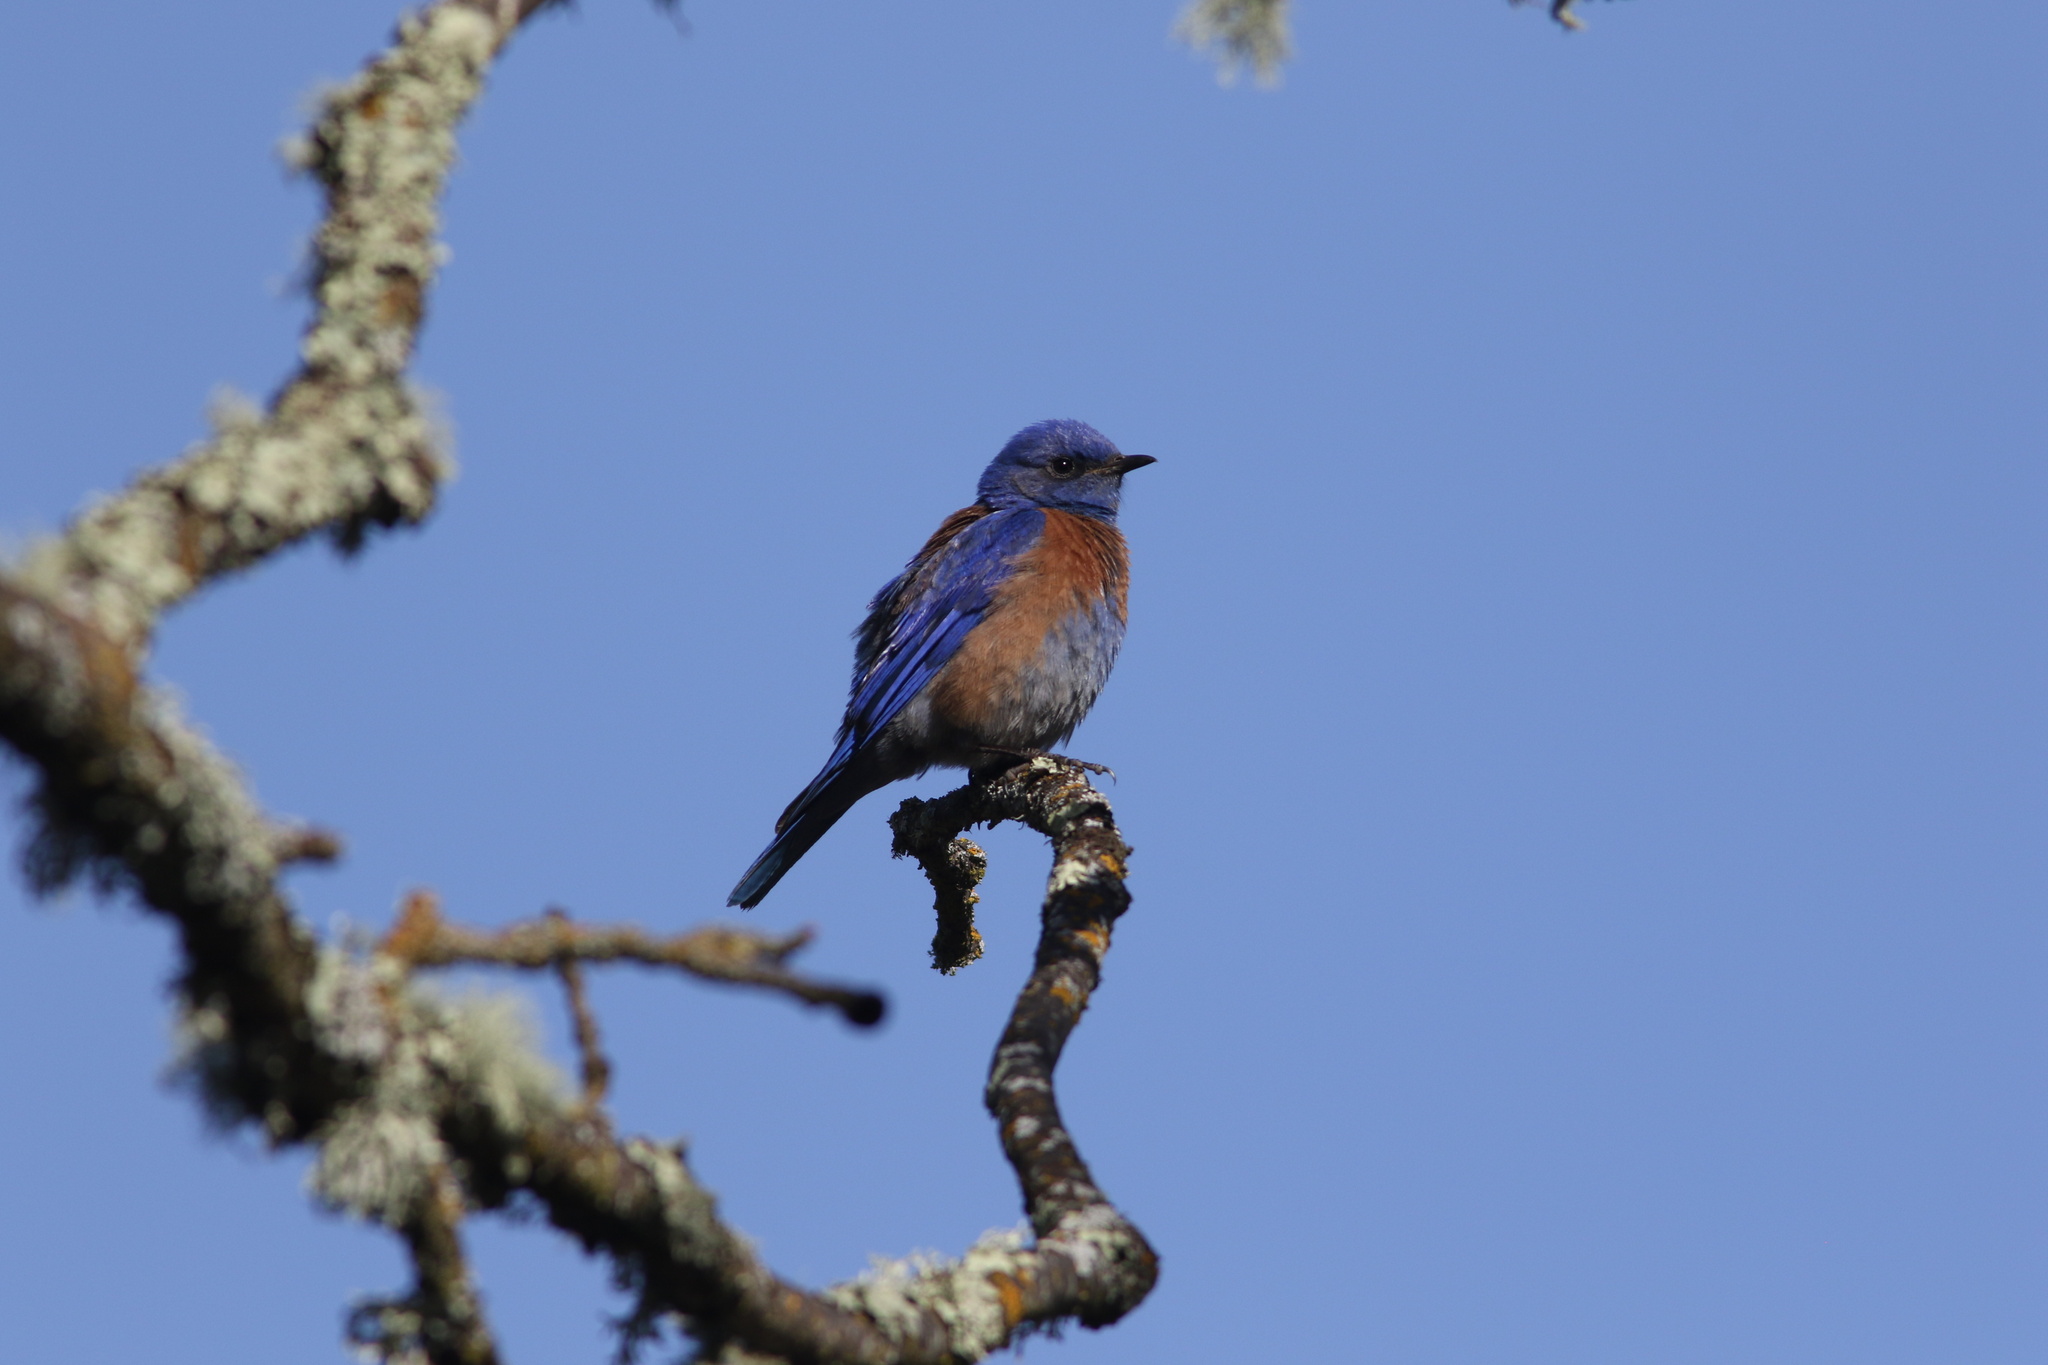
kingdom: Animalia
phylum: Chordata
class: Aves
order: Passeriformes
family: Turdidae
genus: Sialia
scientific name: Sialia mexicana
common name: Western bluebird
